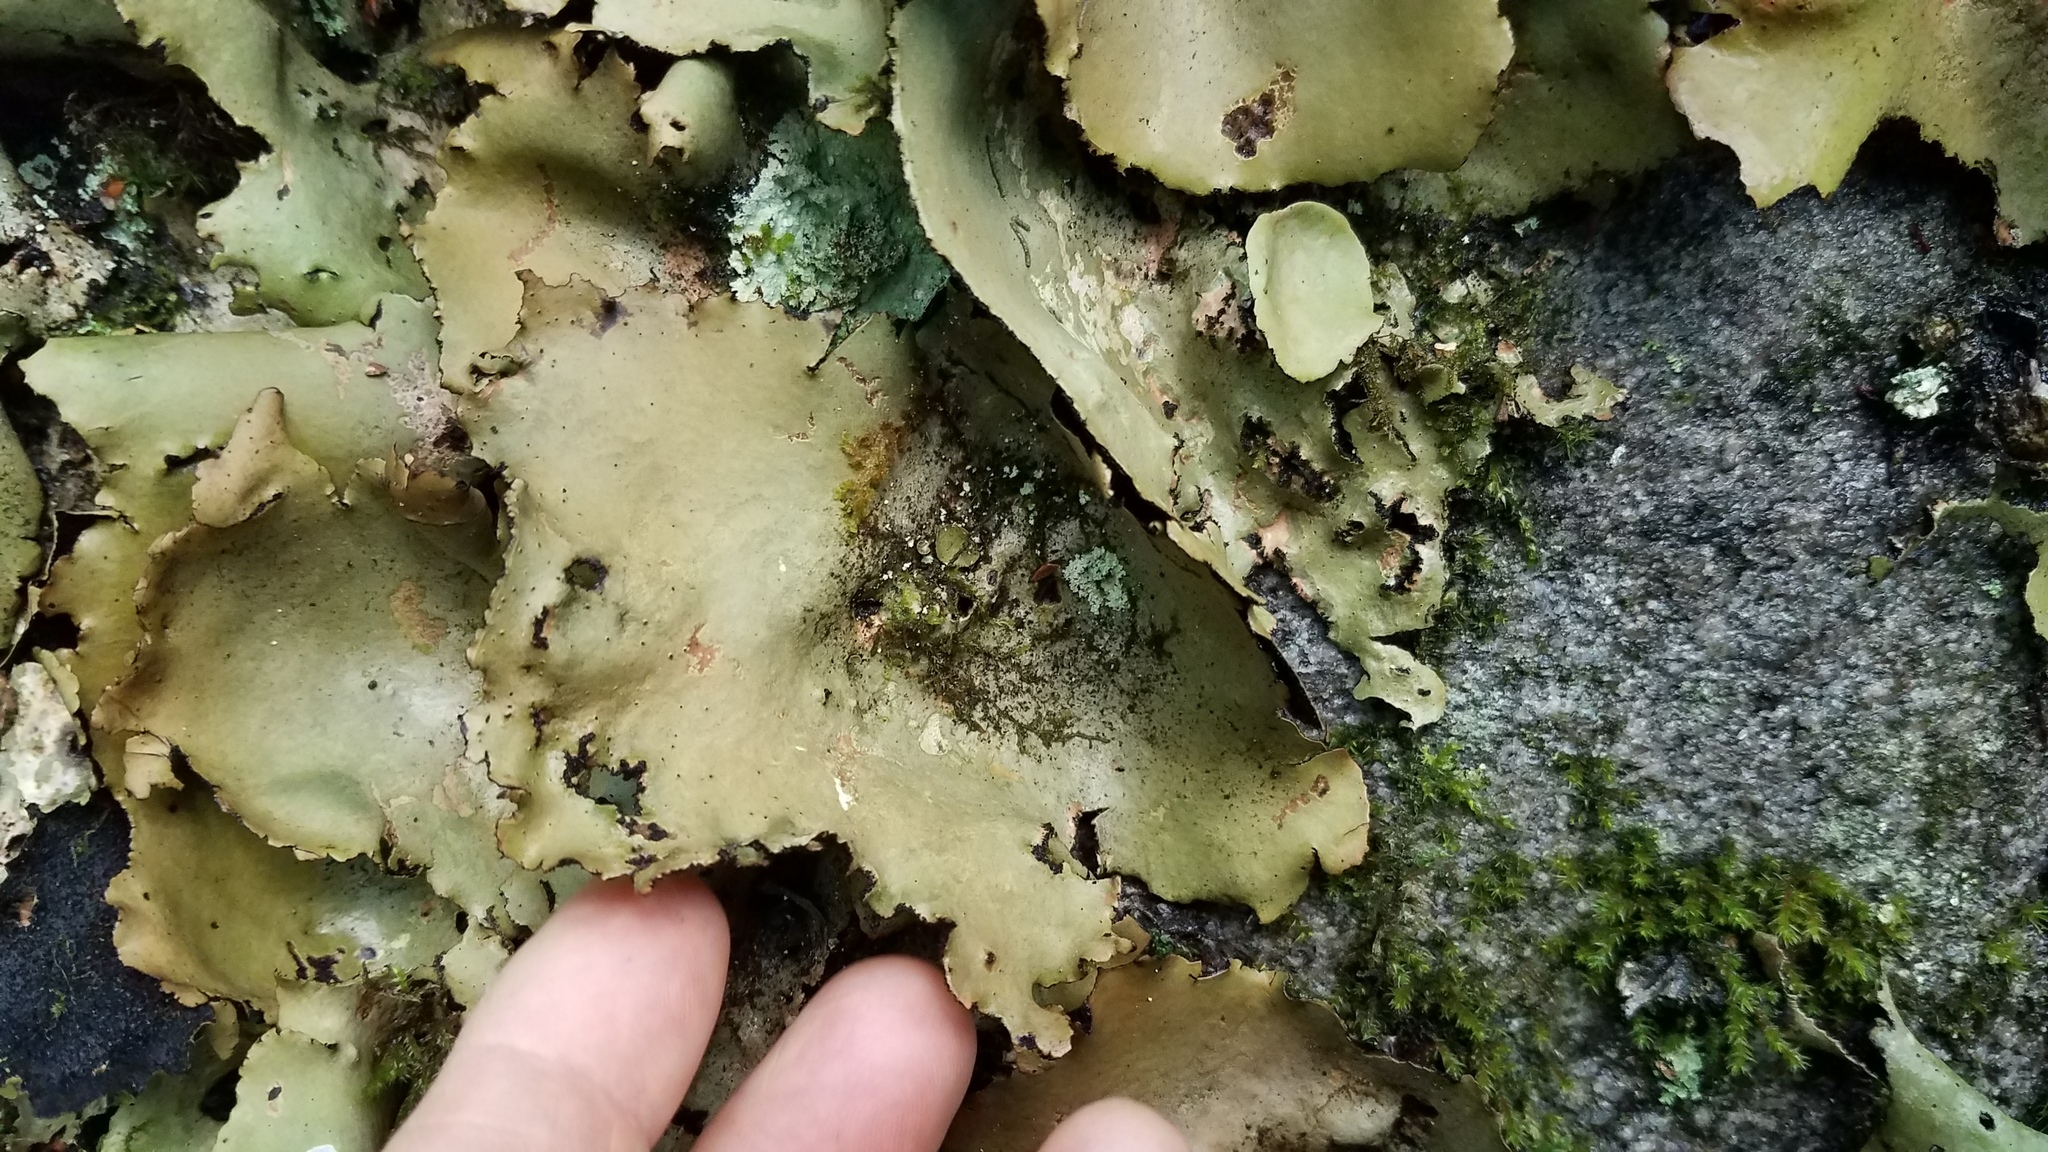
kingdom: Fungi
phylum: Ascomycota
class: Lecanoromycetes
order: Umbilicariales
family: Umbilicariaceae
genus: Umbilicaria
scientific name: Umbilicaria mammulata
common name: Smooth rock tripe
